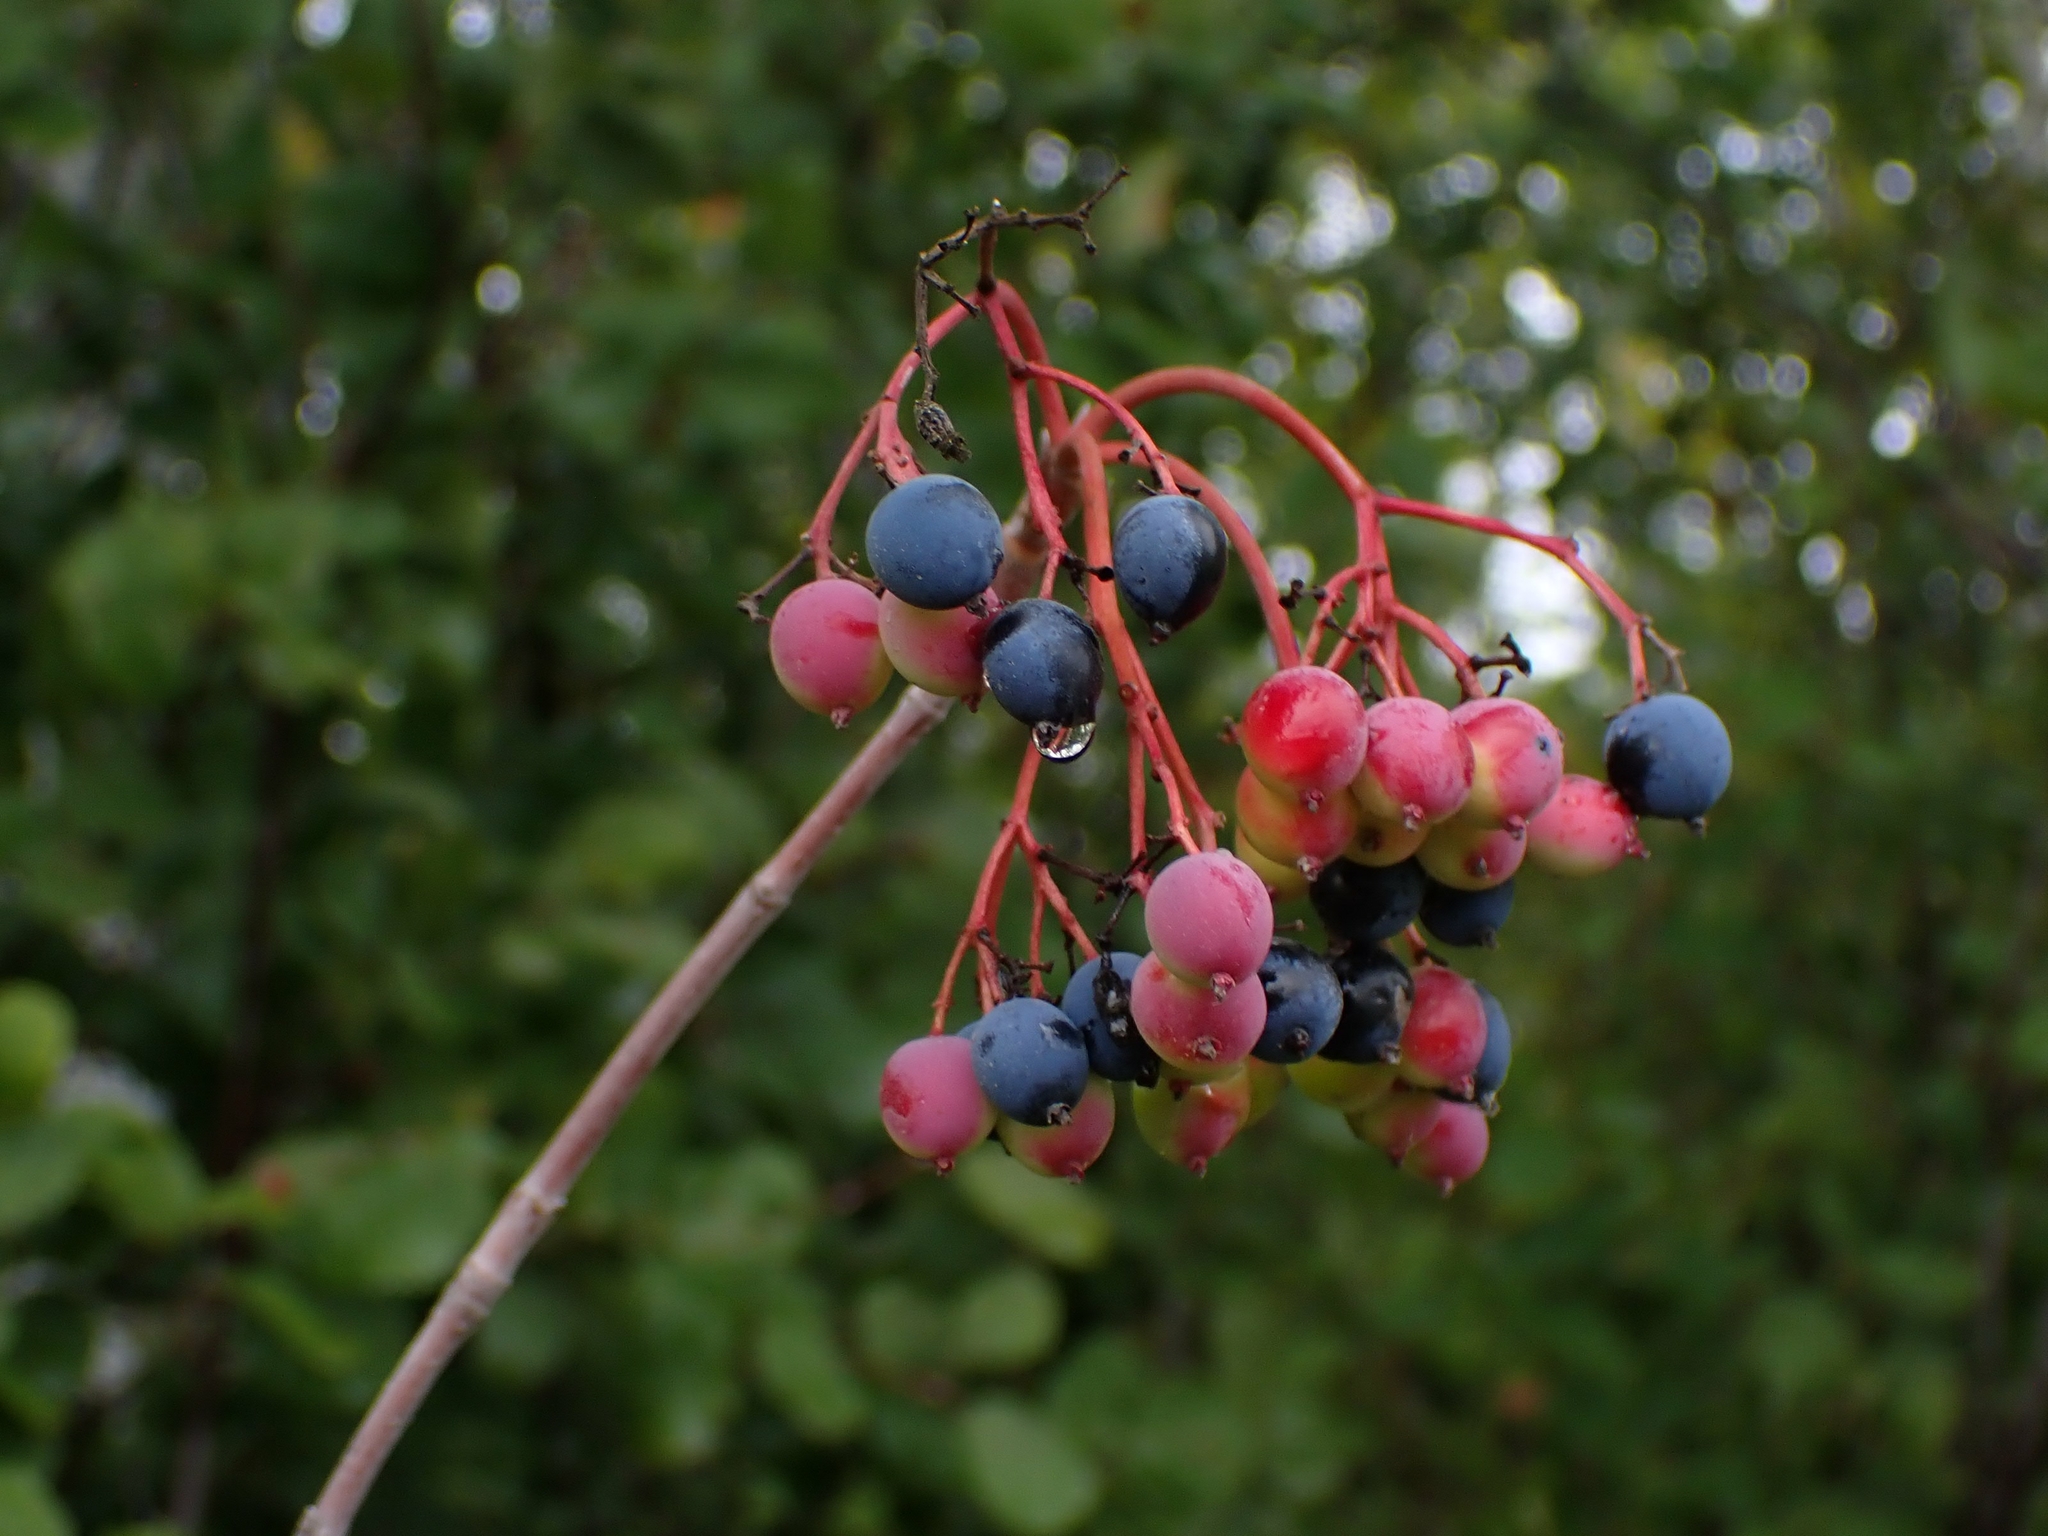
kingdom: Plantae
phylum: Tracheophyta
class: Magnoliopsida
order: Dipsacales
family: Viburnaceae
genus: Viburnum
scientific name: Viburnum lentago
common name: Black haw
